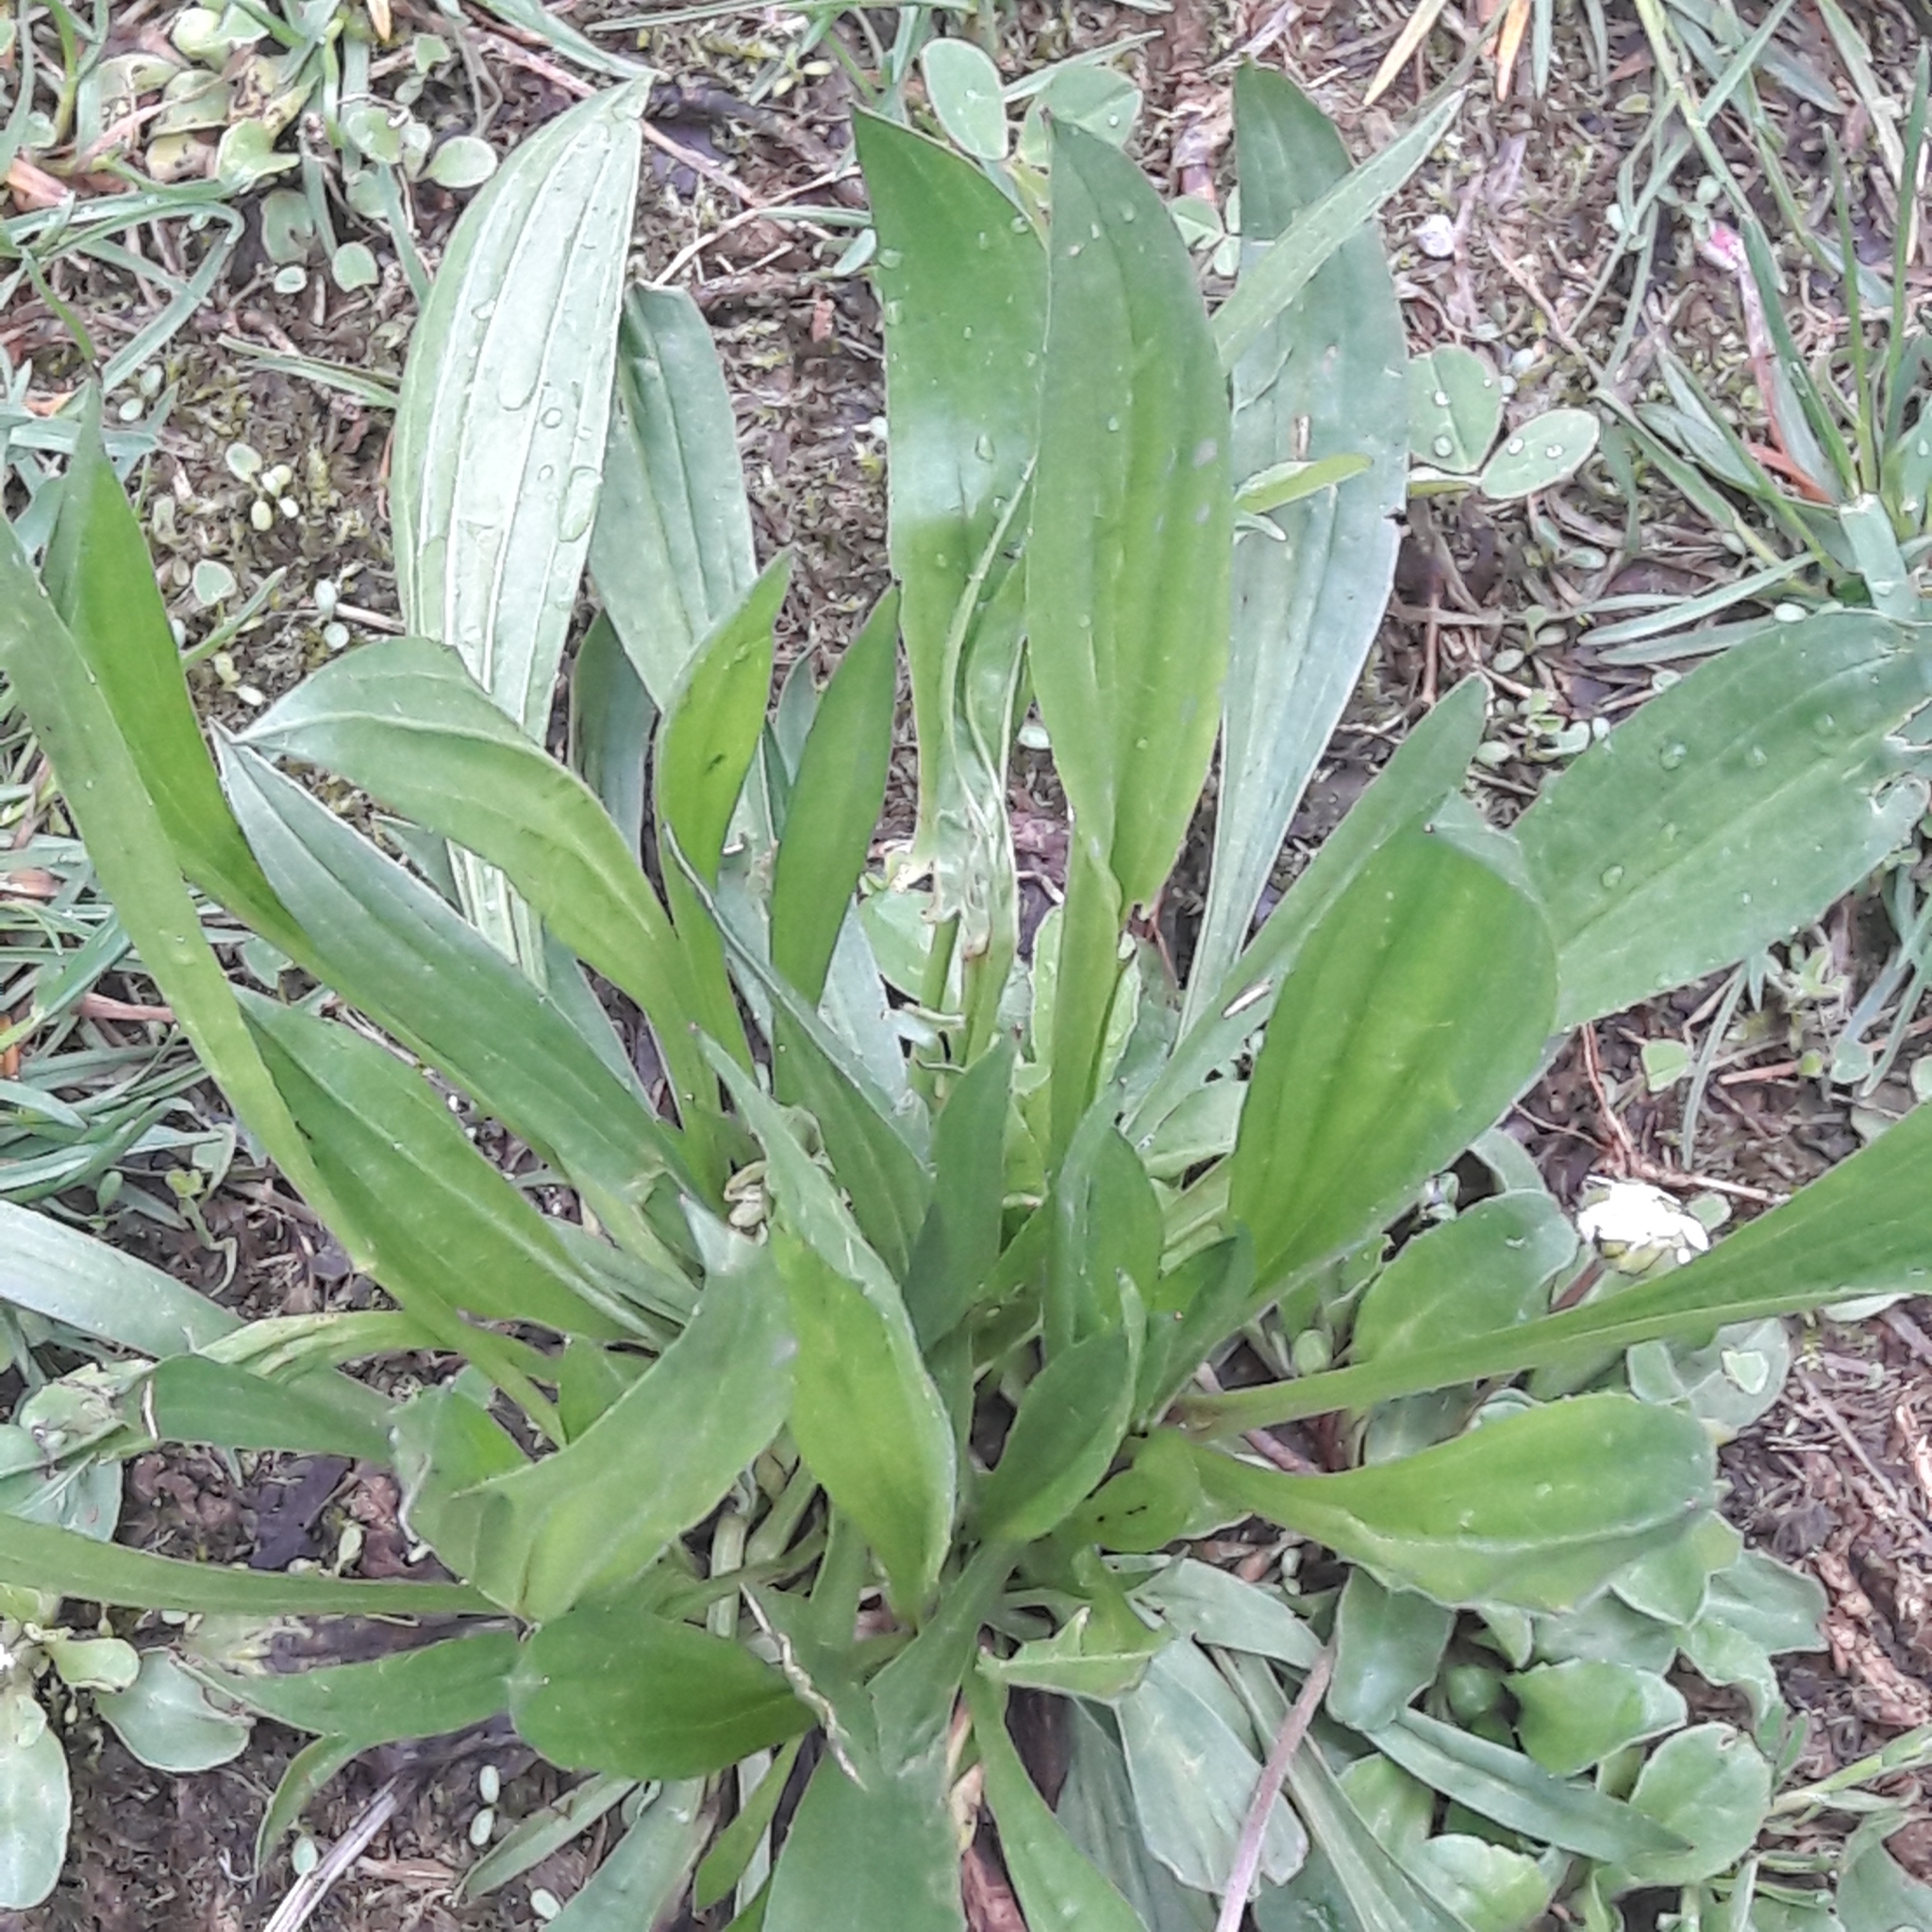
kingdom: Plantae
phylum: Tracheophyta
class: Magnoliopsida
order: Lamiales
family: Plantaginaceae
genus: Plantago
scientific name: Plantago lanceolata
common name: Ribwort plantain
